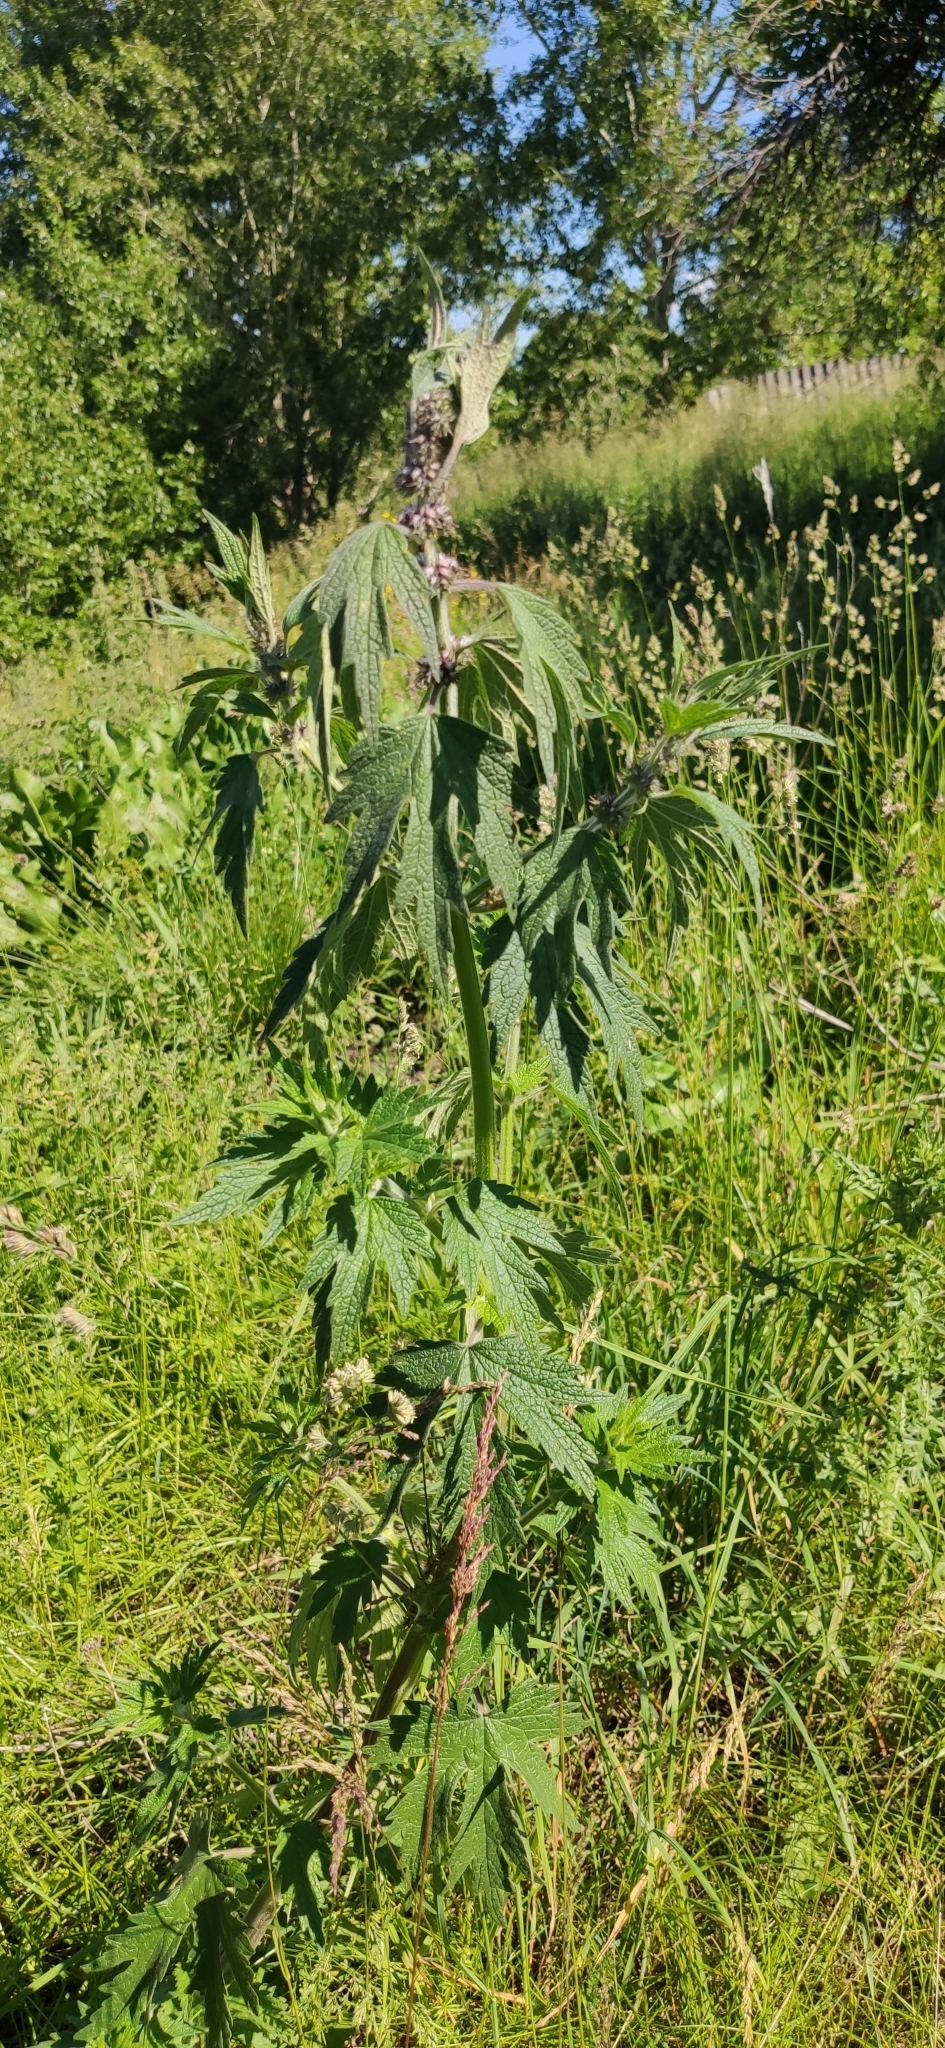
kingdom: Plantae
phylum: Tracheophyta
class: Magnoliopsida
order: Lamiales
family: Lamiaceae
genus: Leonurus
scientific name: Leonurus quinquelobatus
